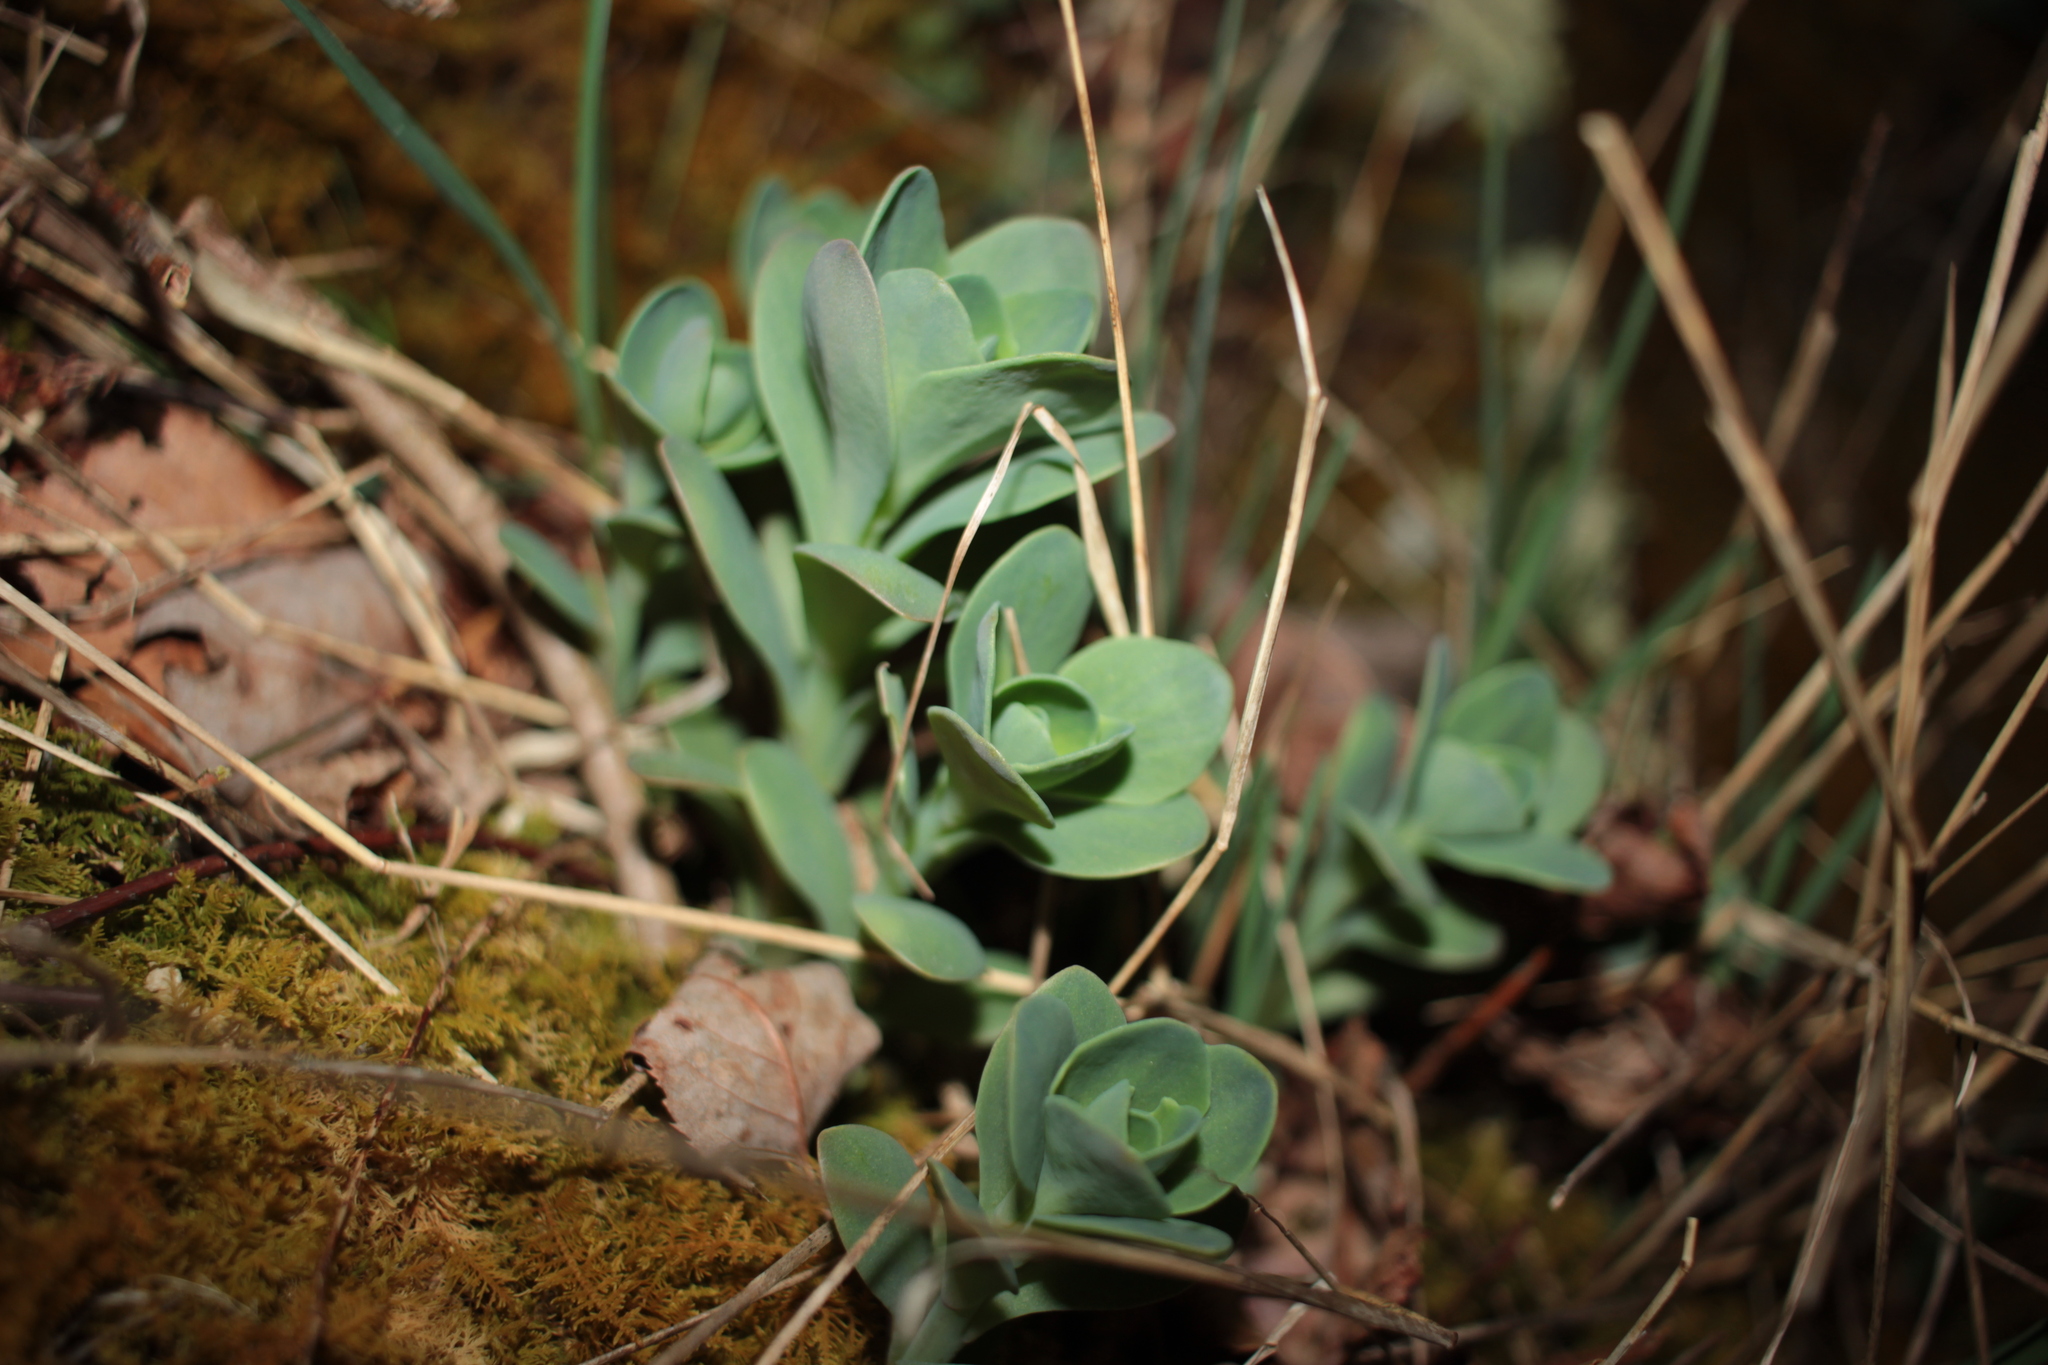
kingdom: Plantae
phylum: Tracheophyta
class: Magnoliopsida
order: Saxifragales
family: Crassulaceae
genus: Hylotelephium
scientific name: Hylotelephium telephioides
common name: Allegheny stonecrop
